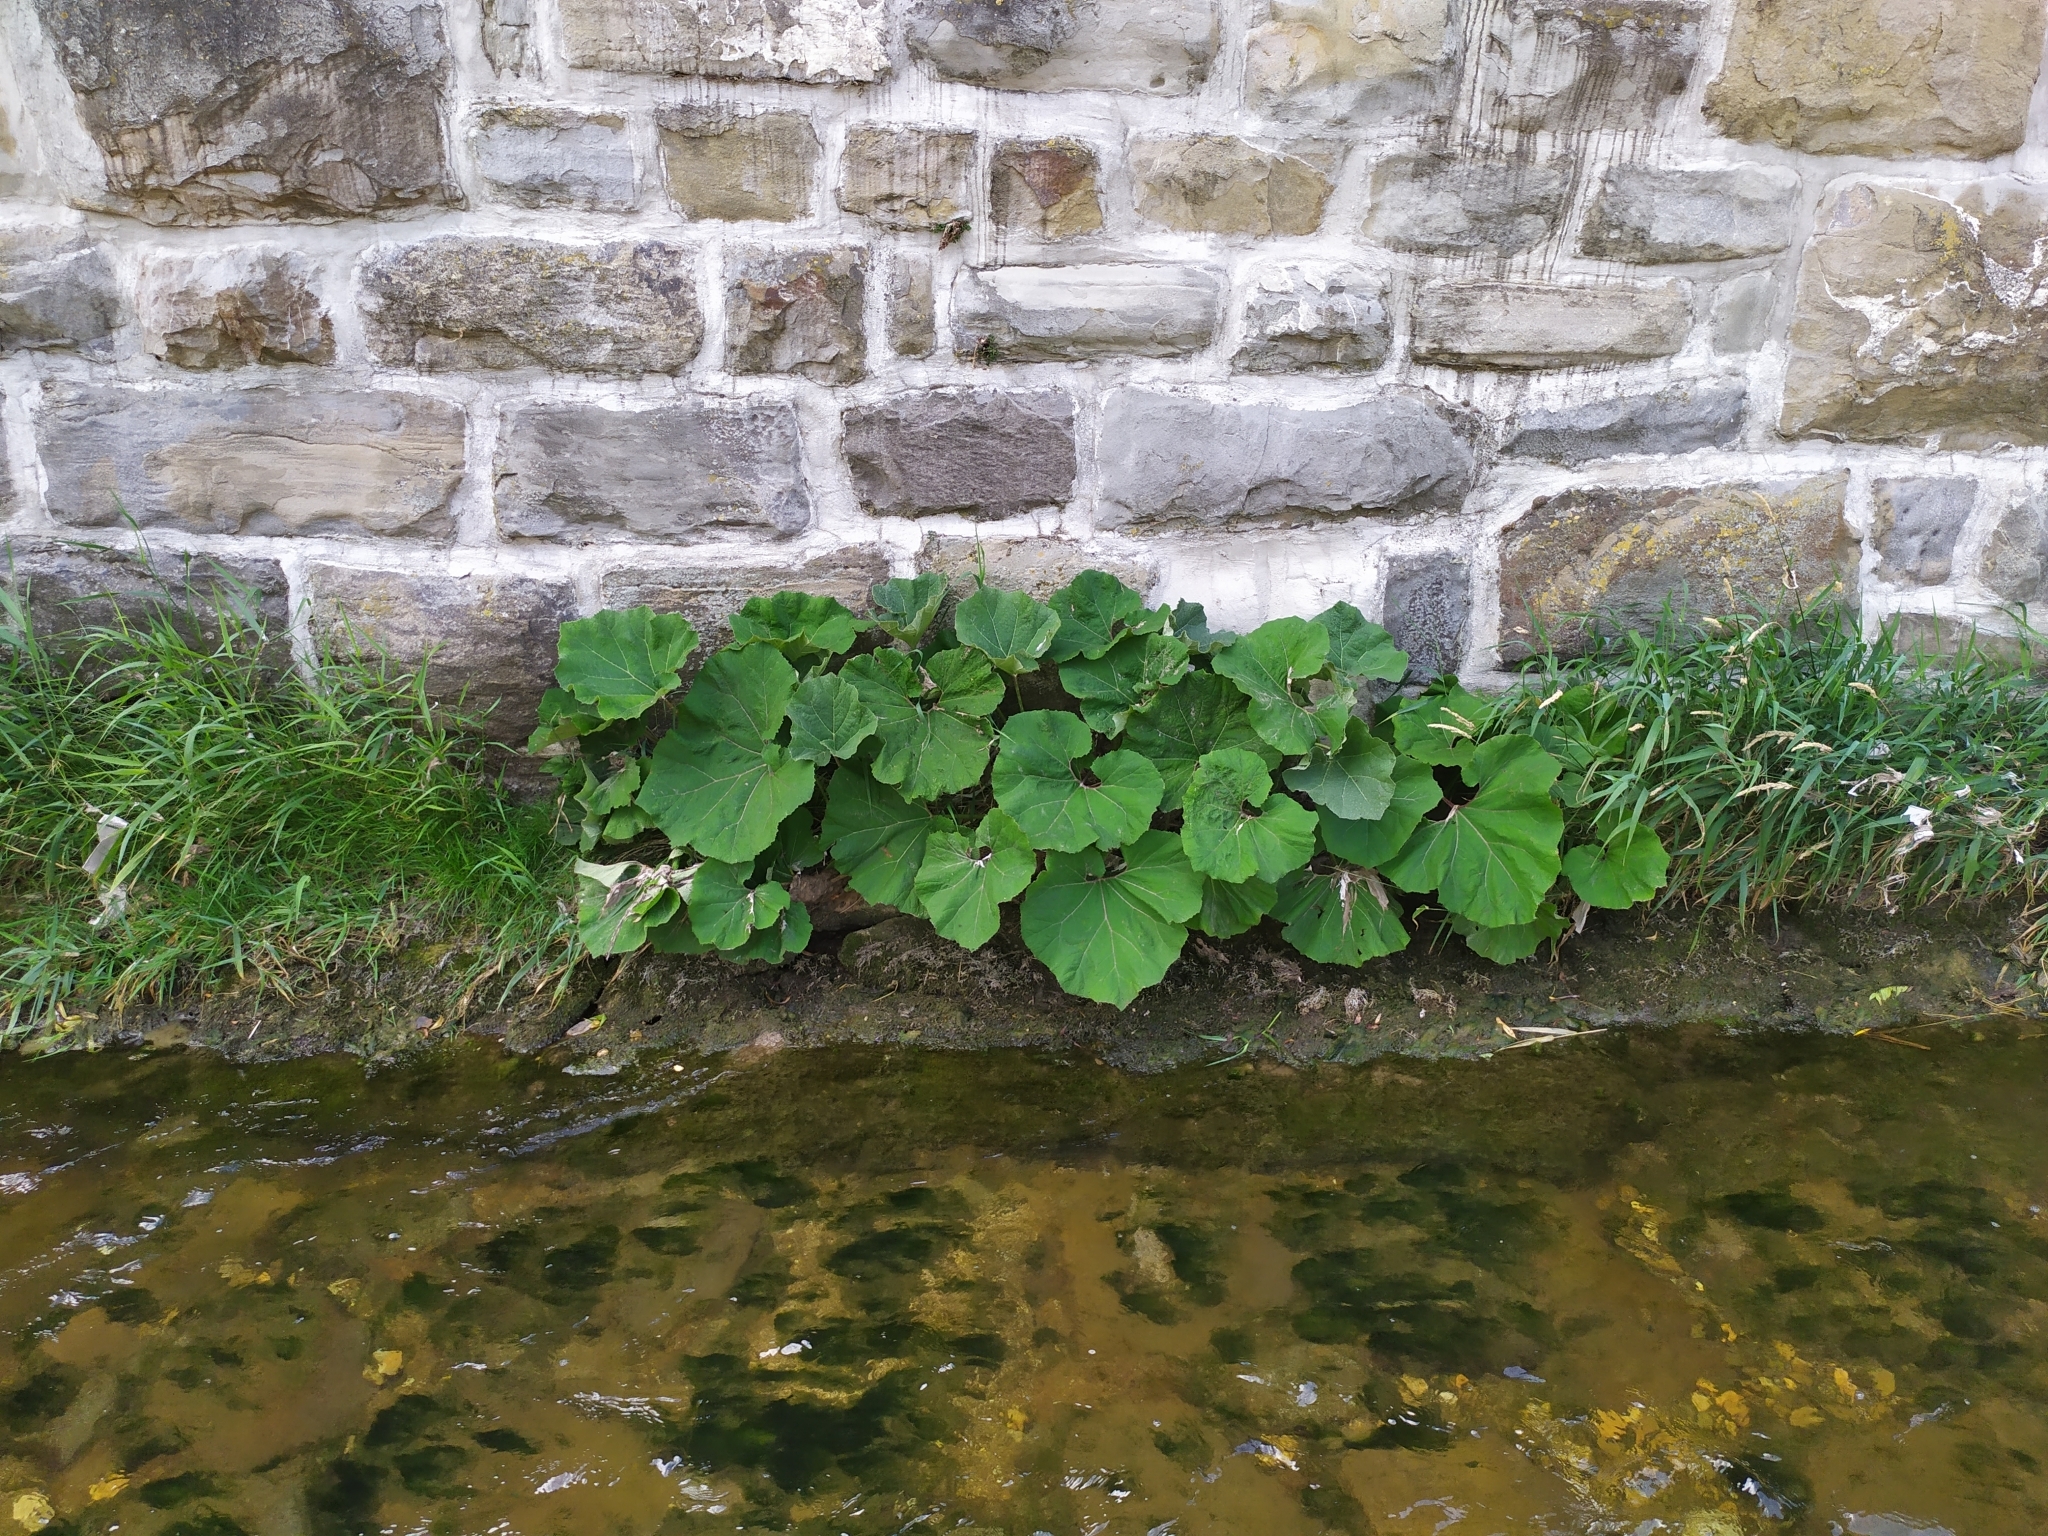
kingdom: Plantae
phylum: Tracheophyta
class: Magnoliopsida
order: Asterales
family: Asteraceae
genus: Petasites
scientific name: Petasites hybridus
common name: Butterbur
